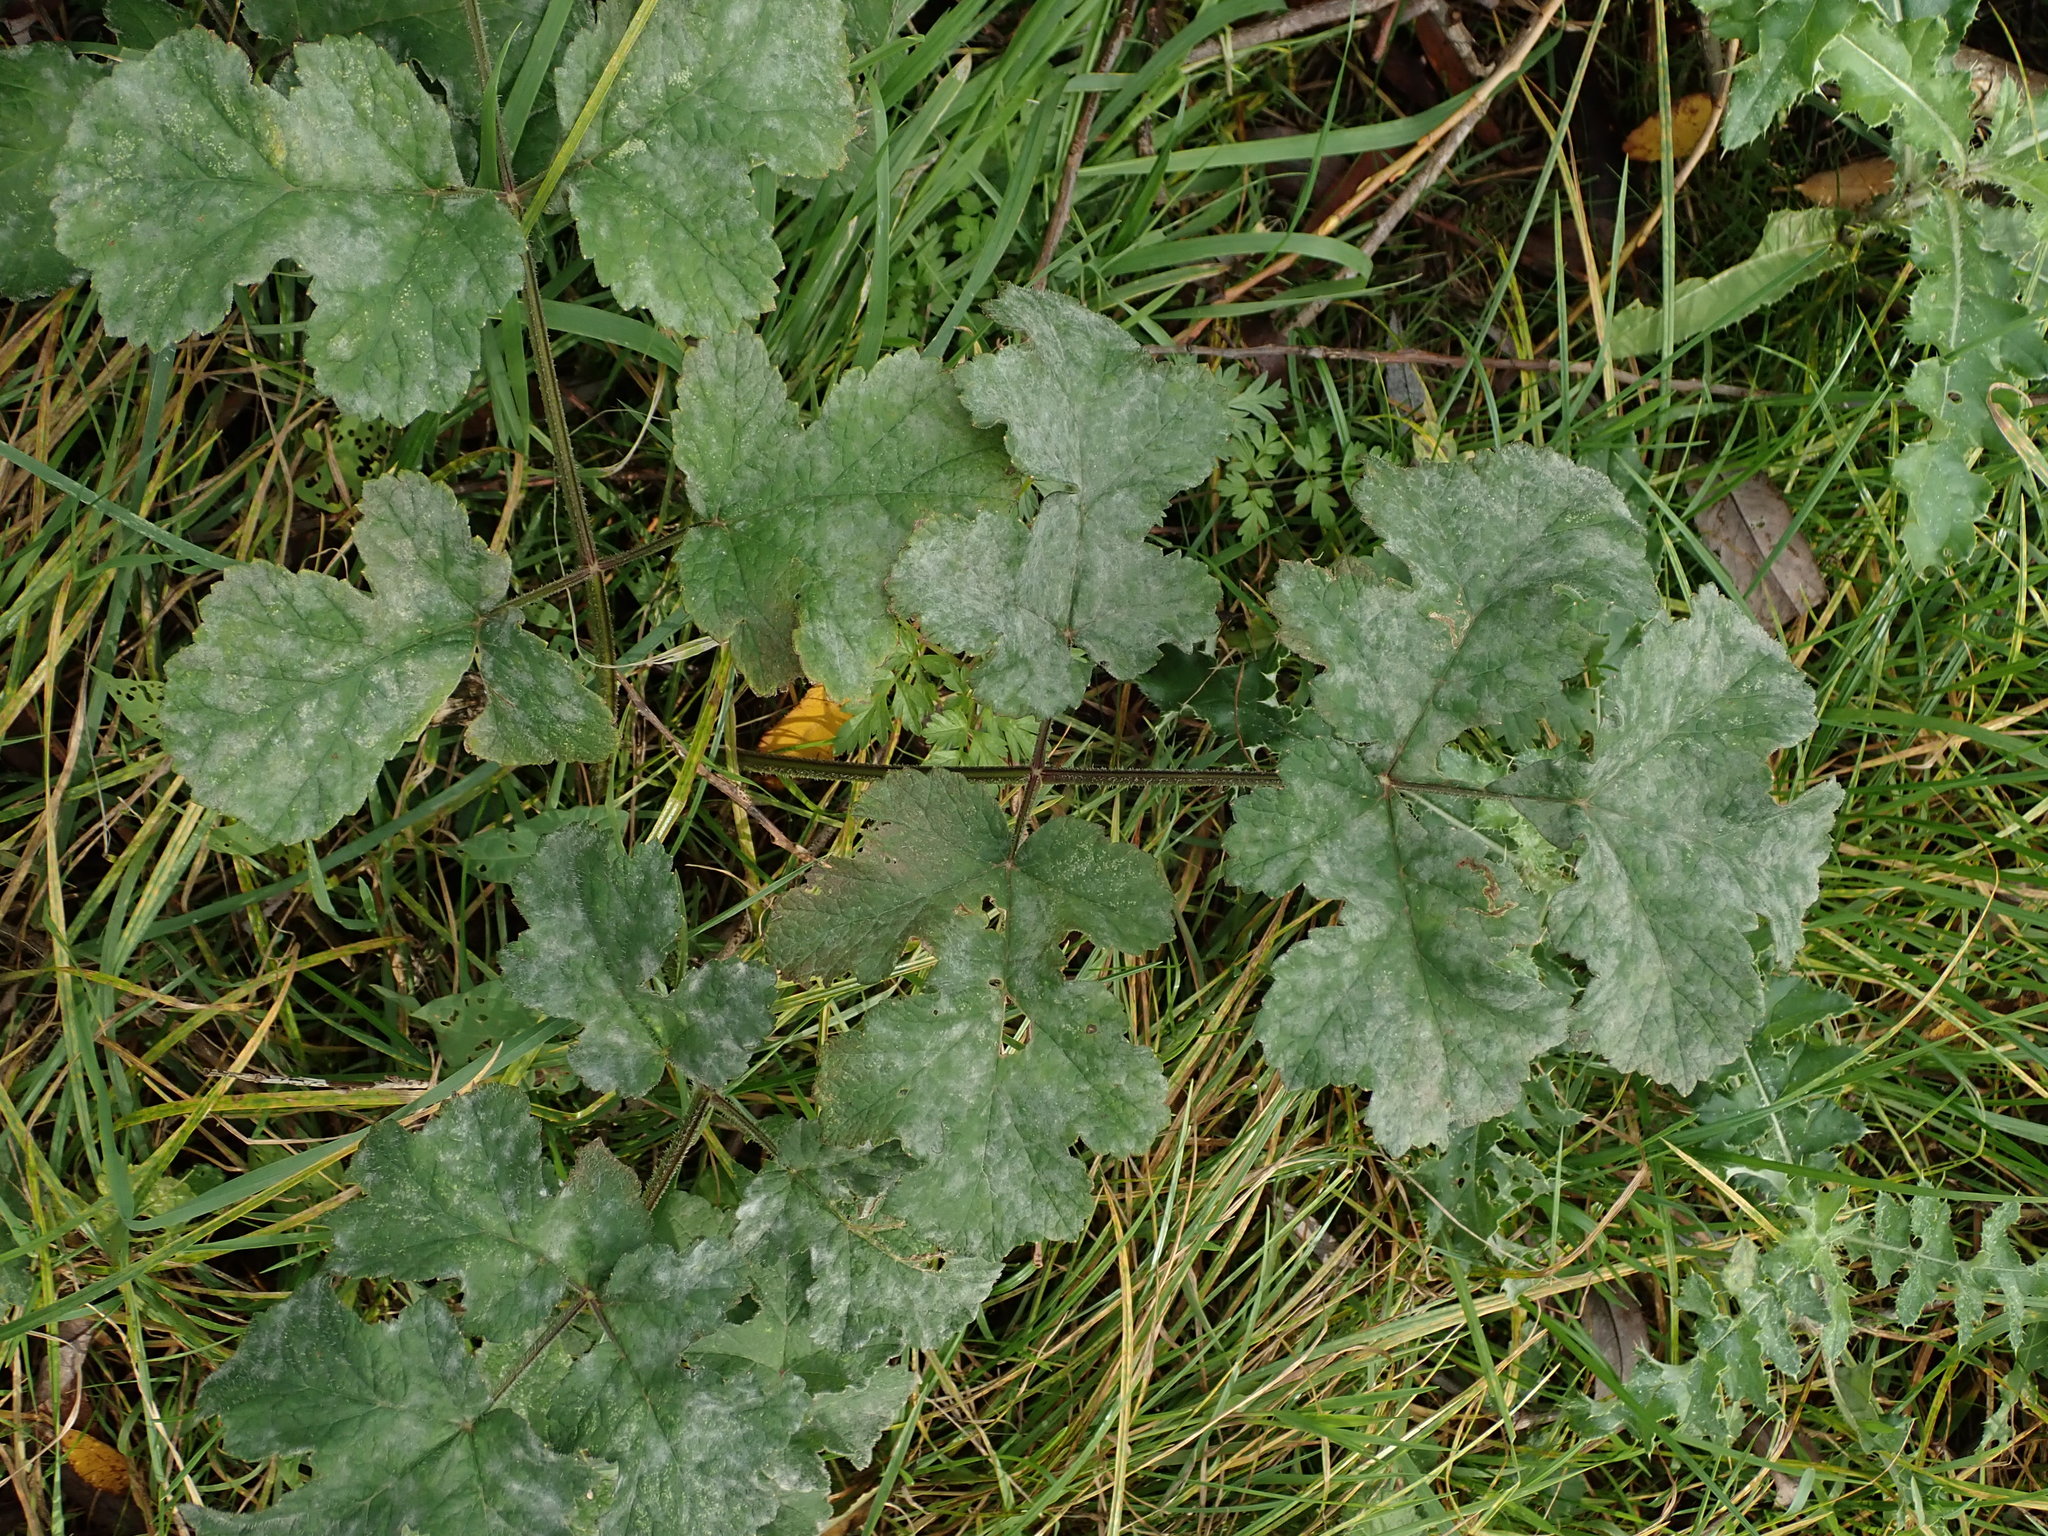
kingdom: Plantae
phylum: Tracheophyta
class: Magnoliopsida
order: Apiales
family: Apiaceae
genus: Heracleum
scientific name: Heracleum sphondylium
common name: Hogweed
